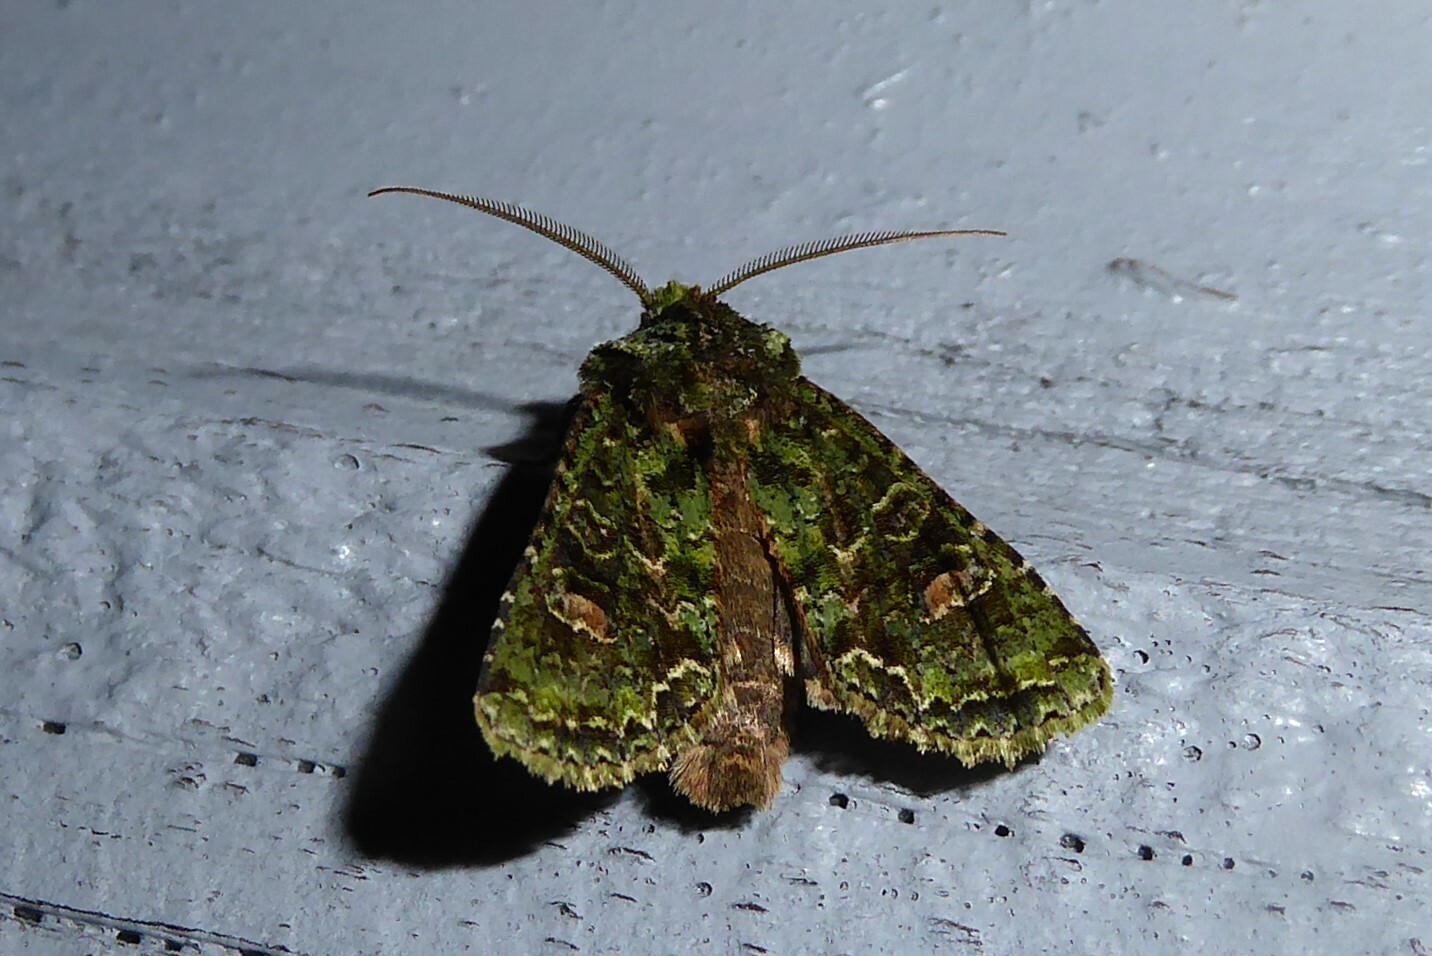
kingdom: Animalia
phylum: Arthropoda
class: Insecta
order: Lepidoptera
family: Noctuidae
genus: Ichneutica
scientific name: Ichneutica
